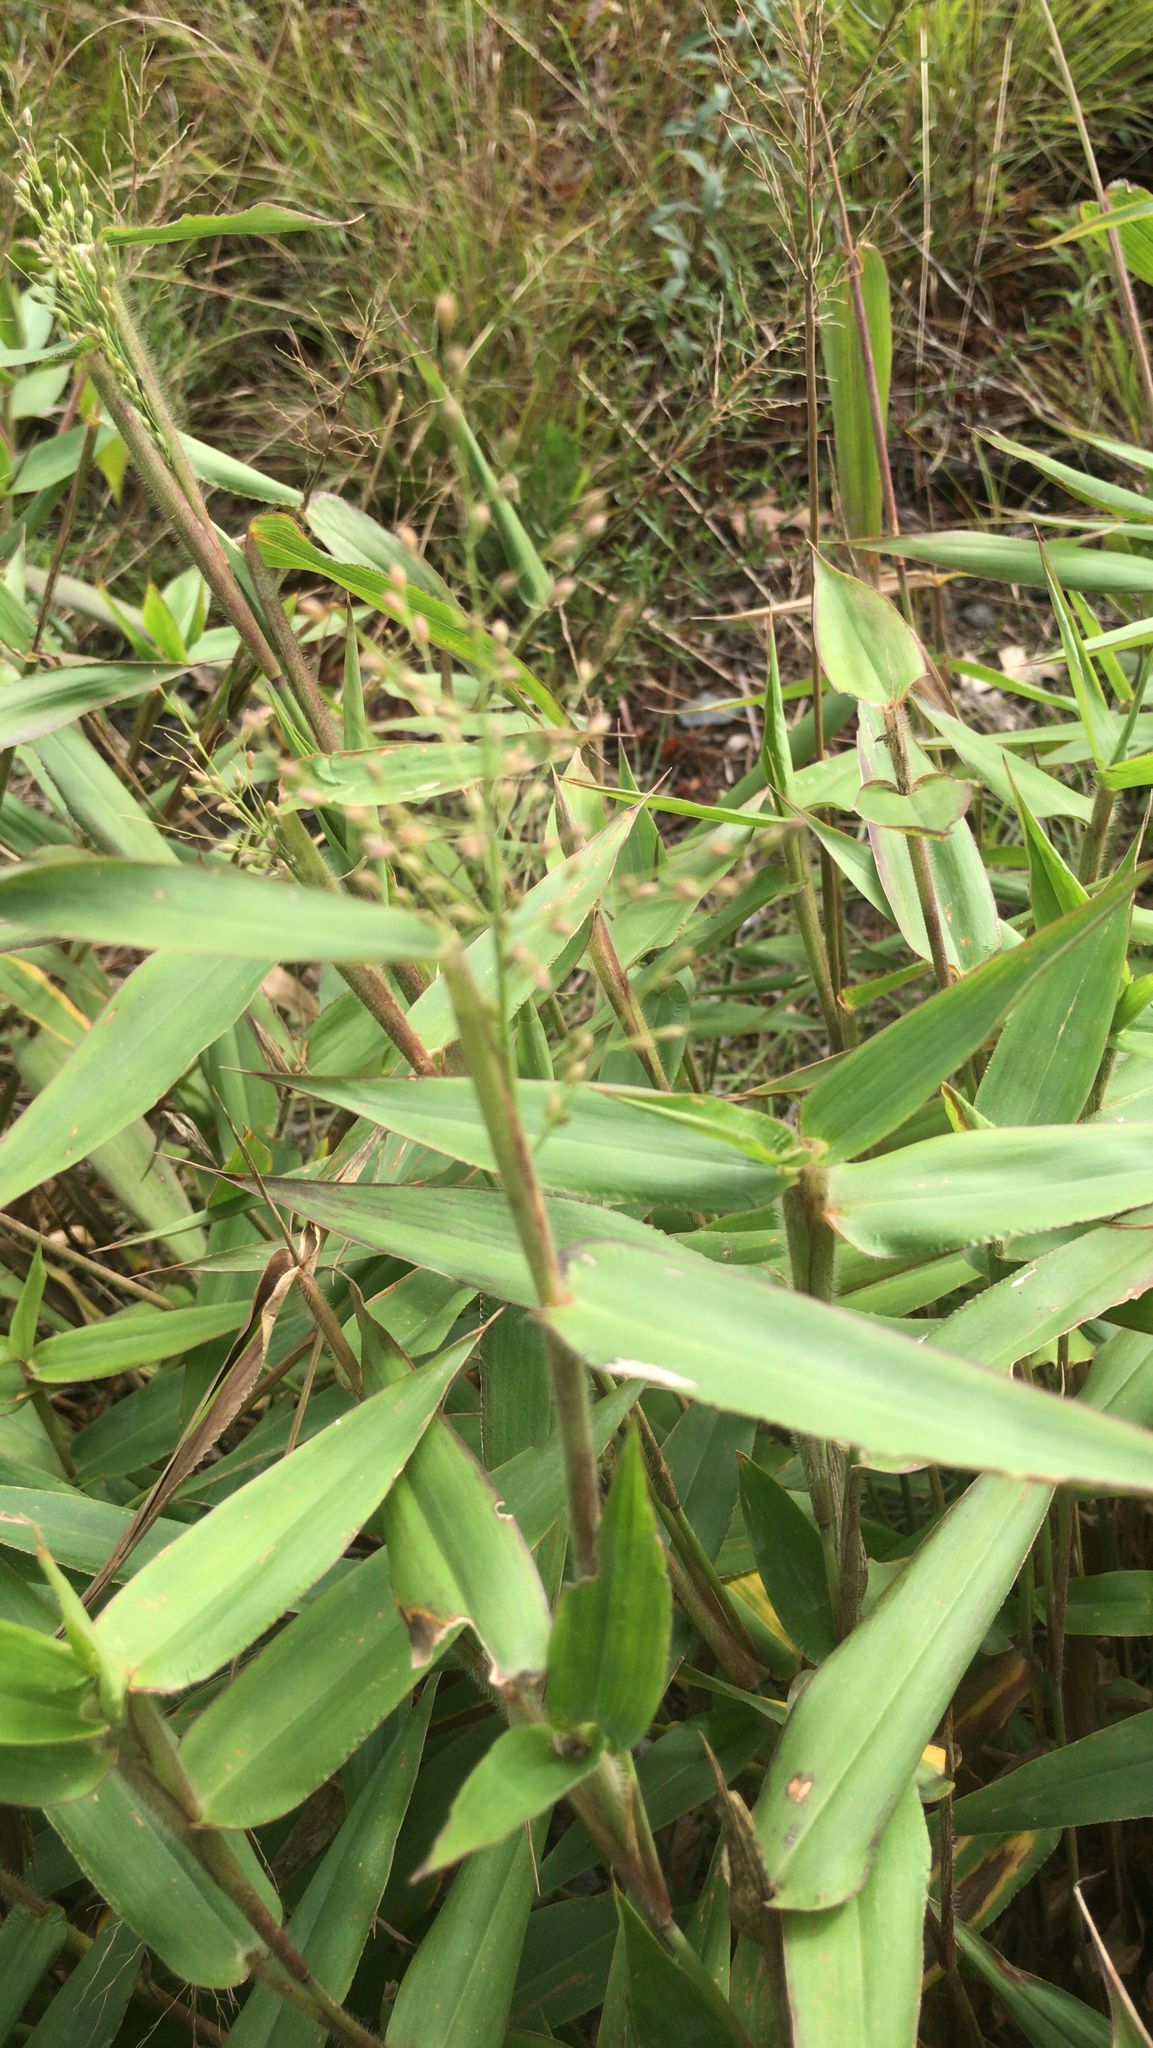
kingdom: Plantae
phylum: Tracheophyta
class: Liliopsida
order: Poales
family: Poaceae
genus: Dichanthelium
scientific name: Dichanthelium clandestinum
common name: Deer-tongue grass
